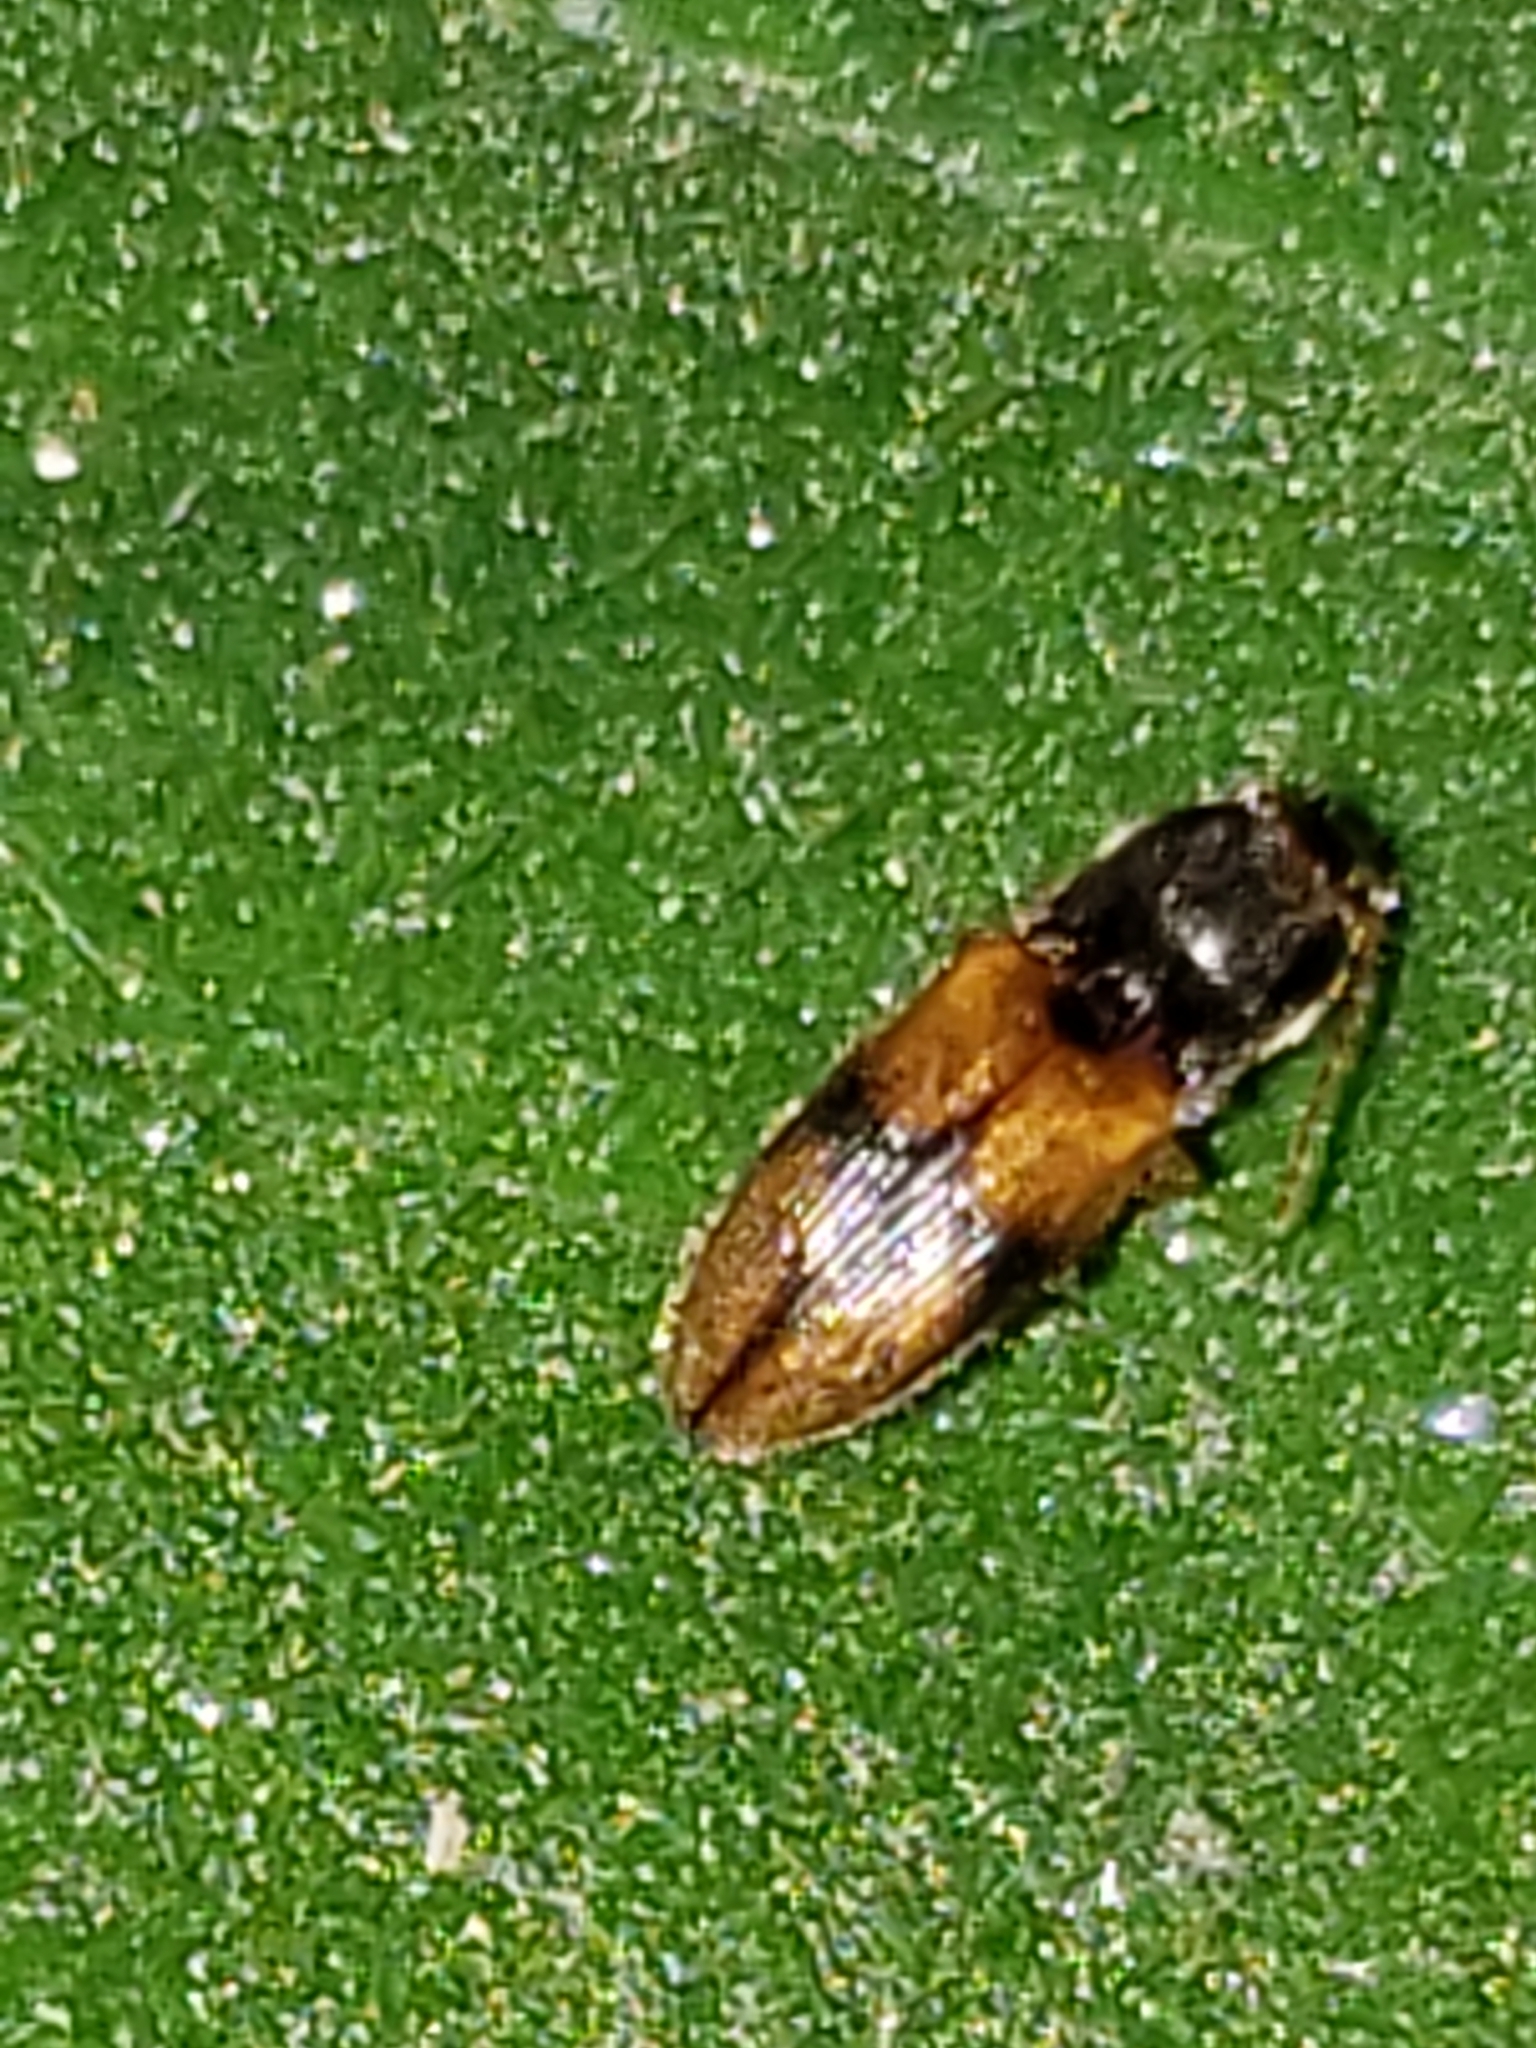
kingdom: Animalia
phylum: Arthropoda
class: Insecta
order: Coleoptera
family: Elateridae
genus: Horistonotus
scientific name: Horistonotus curiatus
